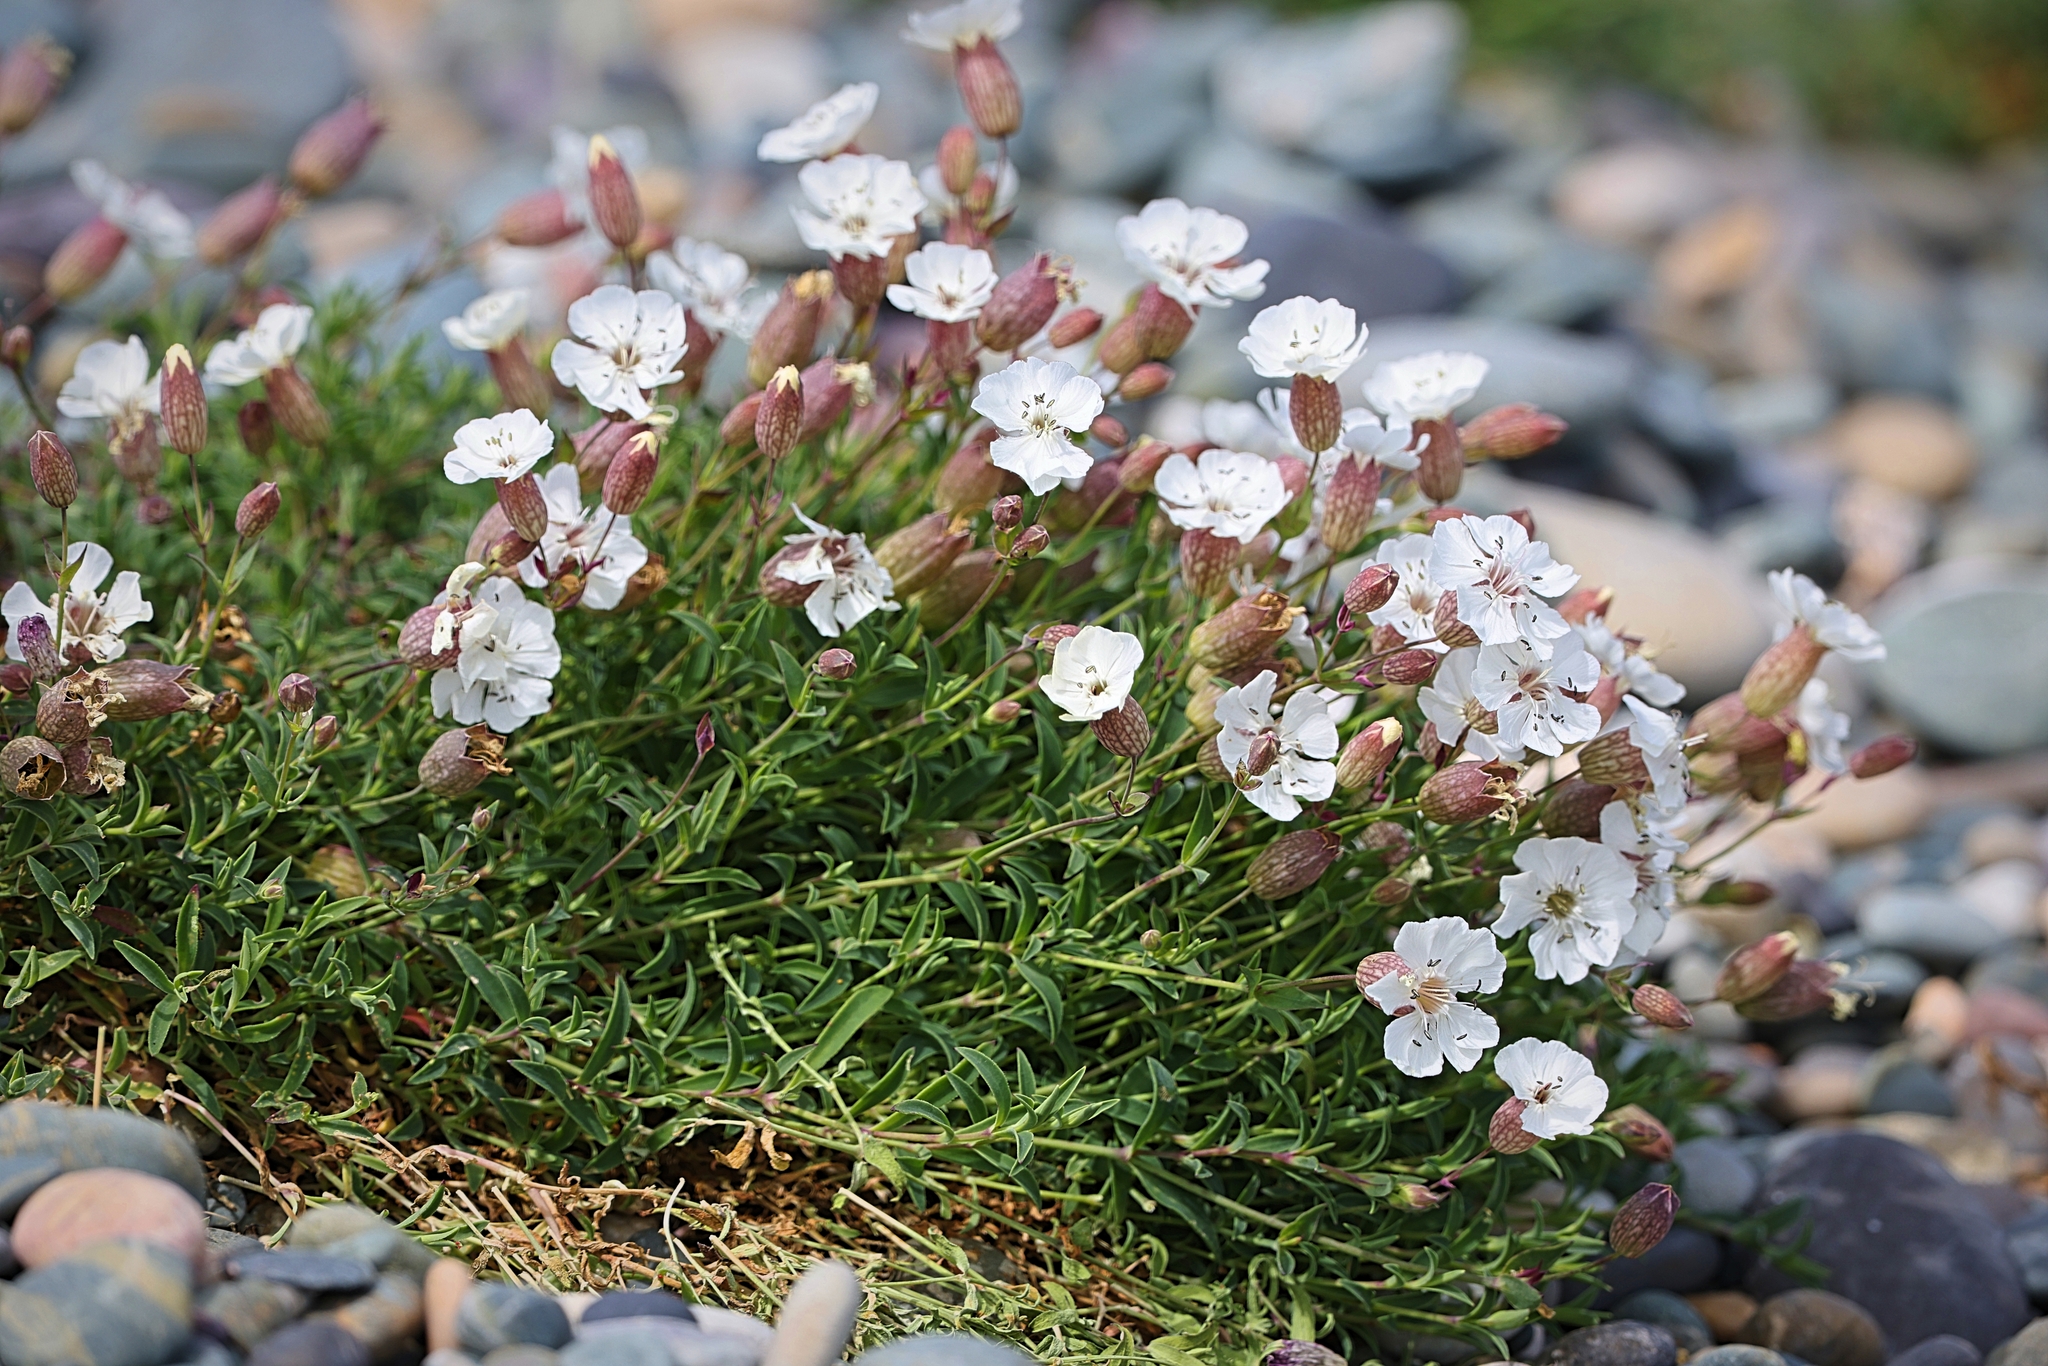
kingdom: Plantae
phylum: Tracheophyta
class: Magnoliopsida
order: Caryophyllales
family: Caryophyllaceae
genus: Silene
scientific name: Silene uniflora
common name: Sea campion
